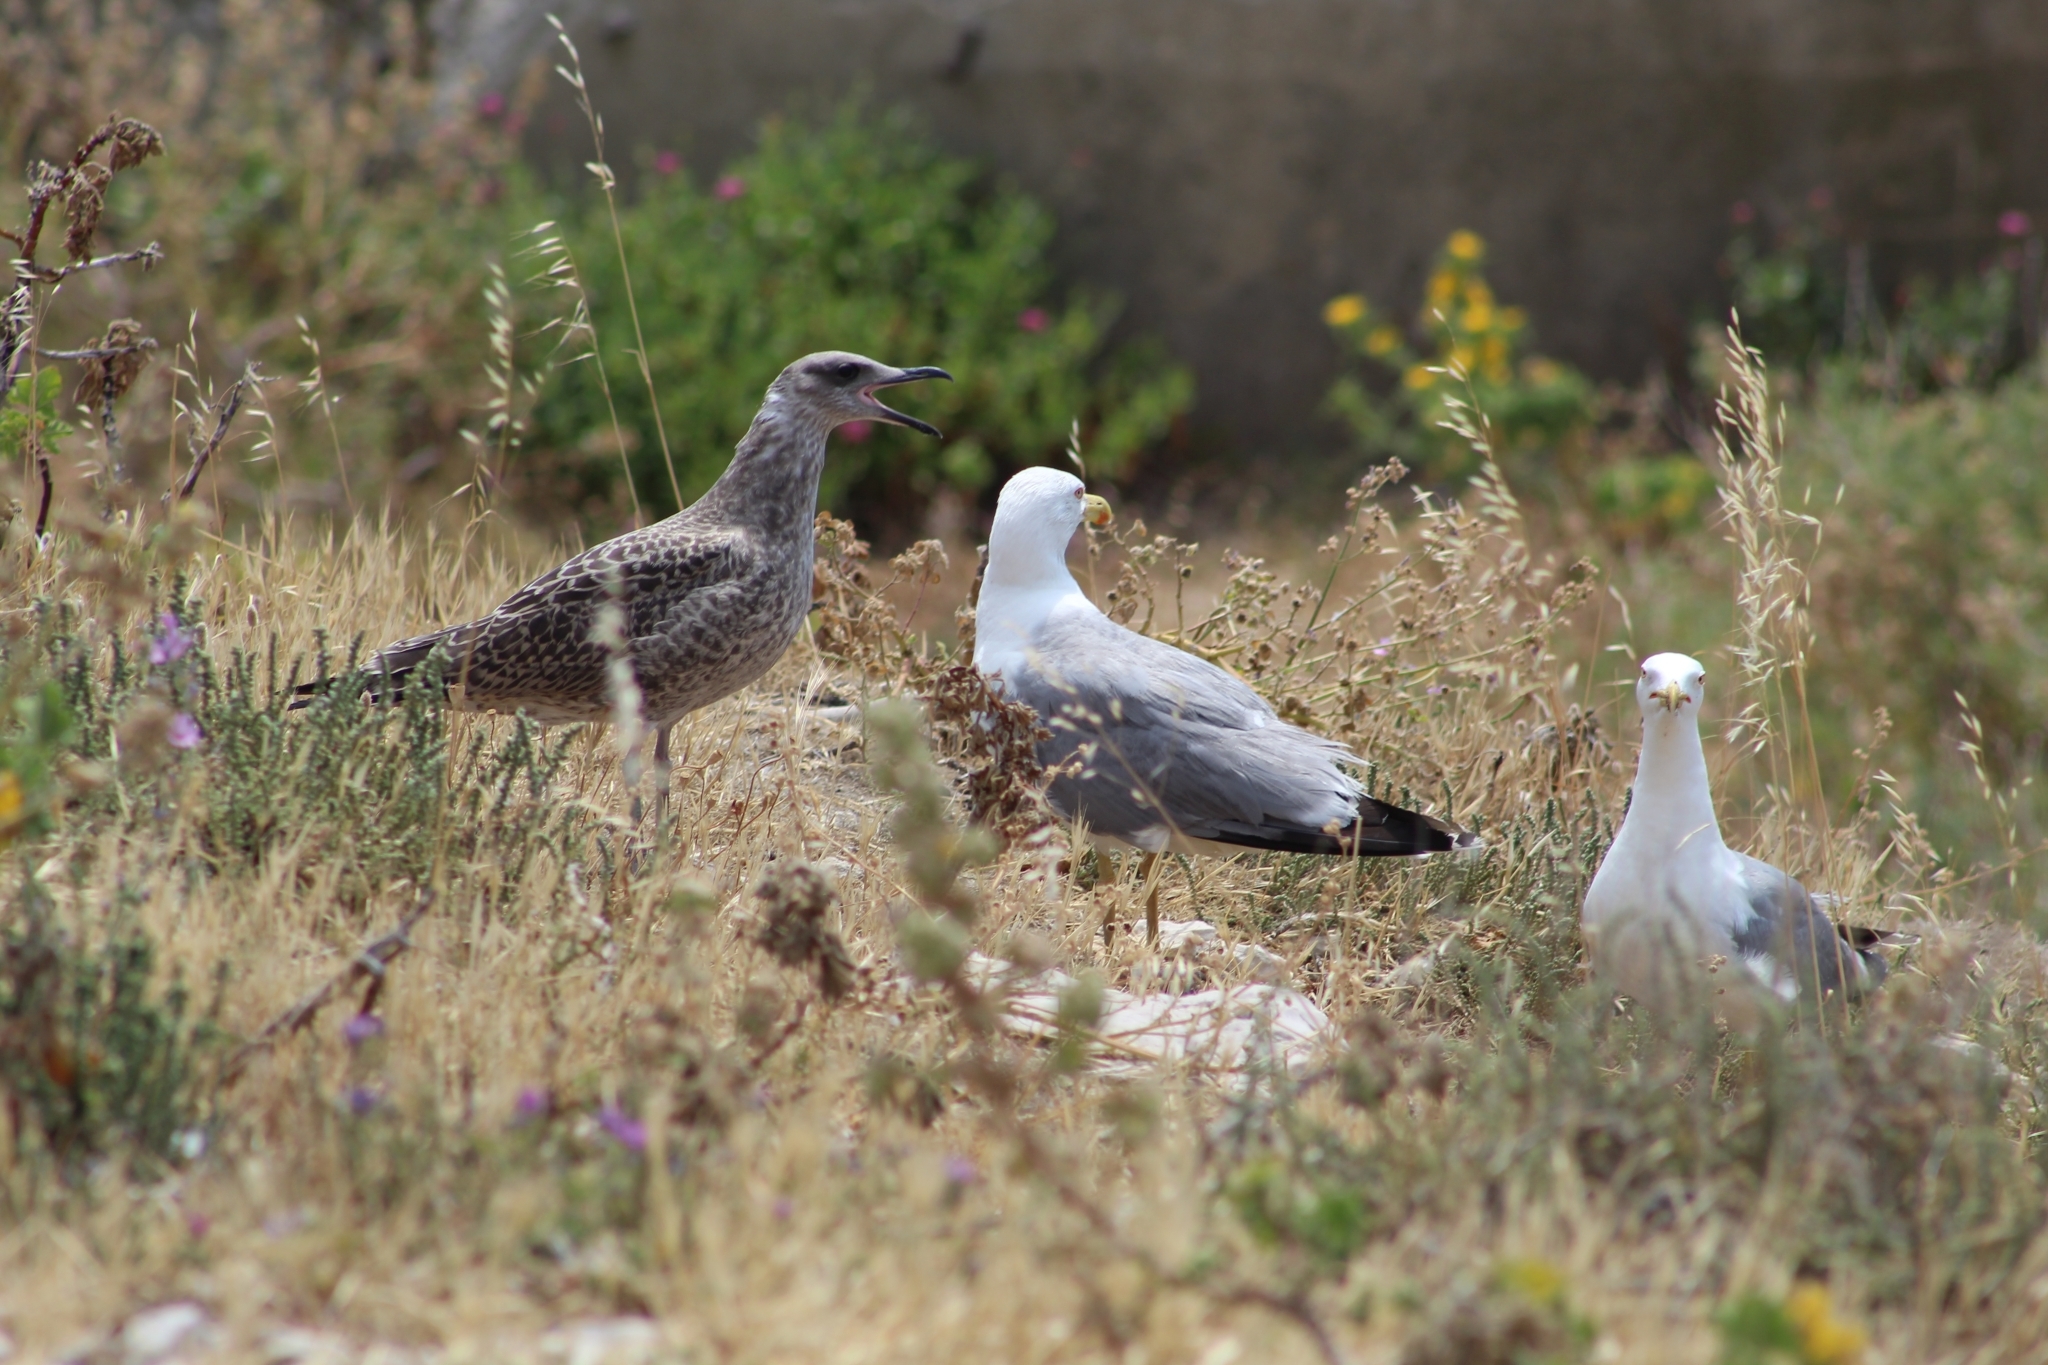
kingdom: Animalia
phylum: Chordata
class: Aves
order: Charadriiformes
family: Laridae
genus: Larus
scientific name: Larus michahellis
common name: Yellow-legged gull
